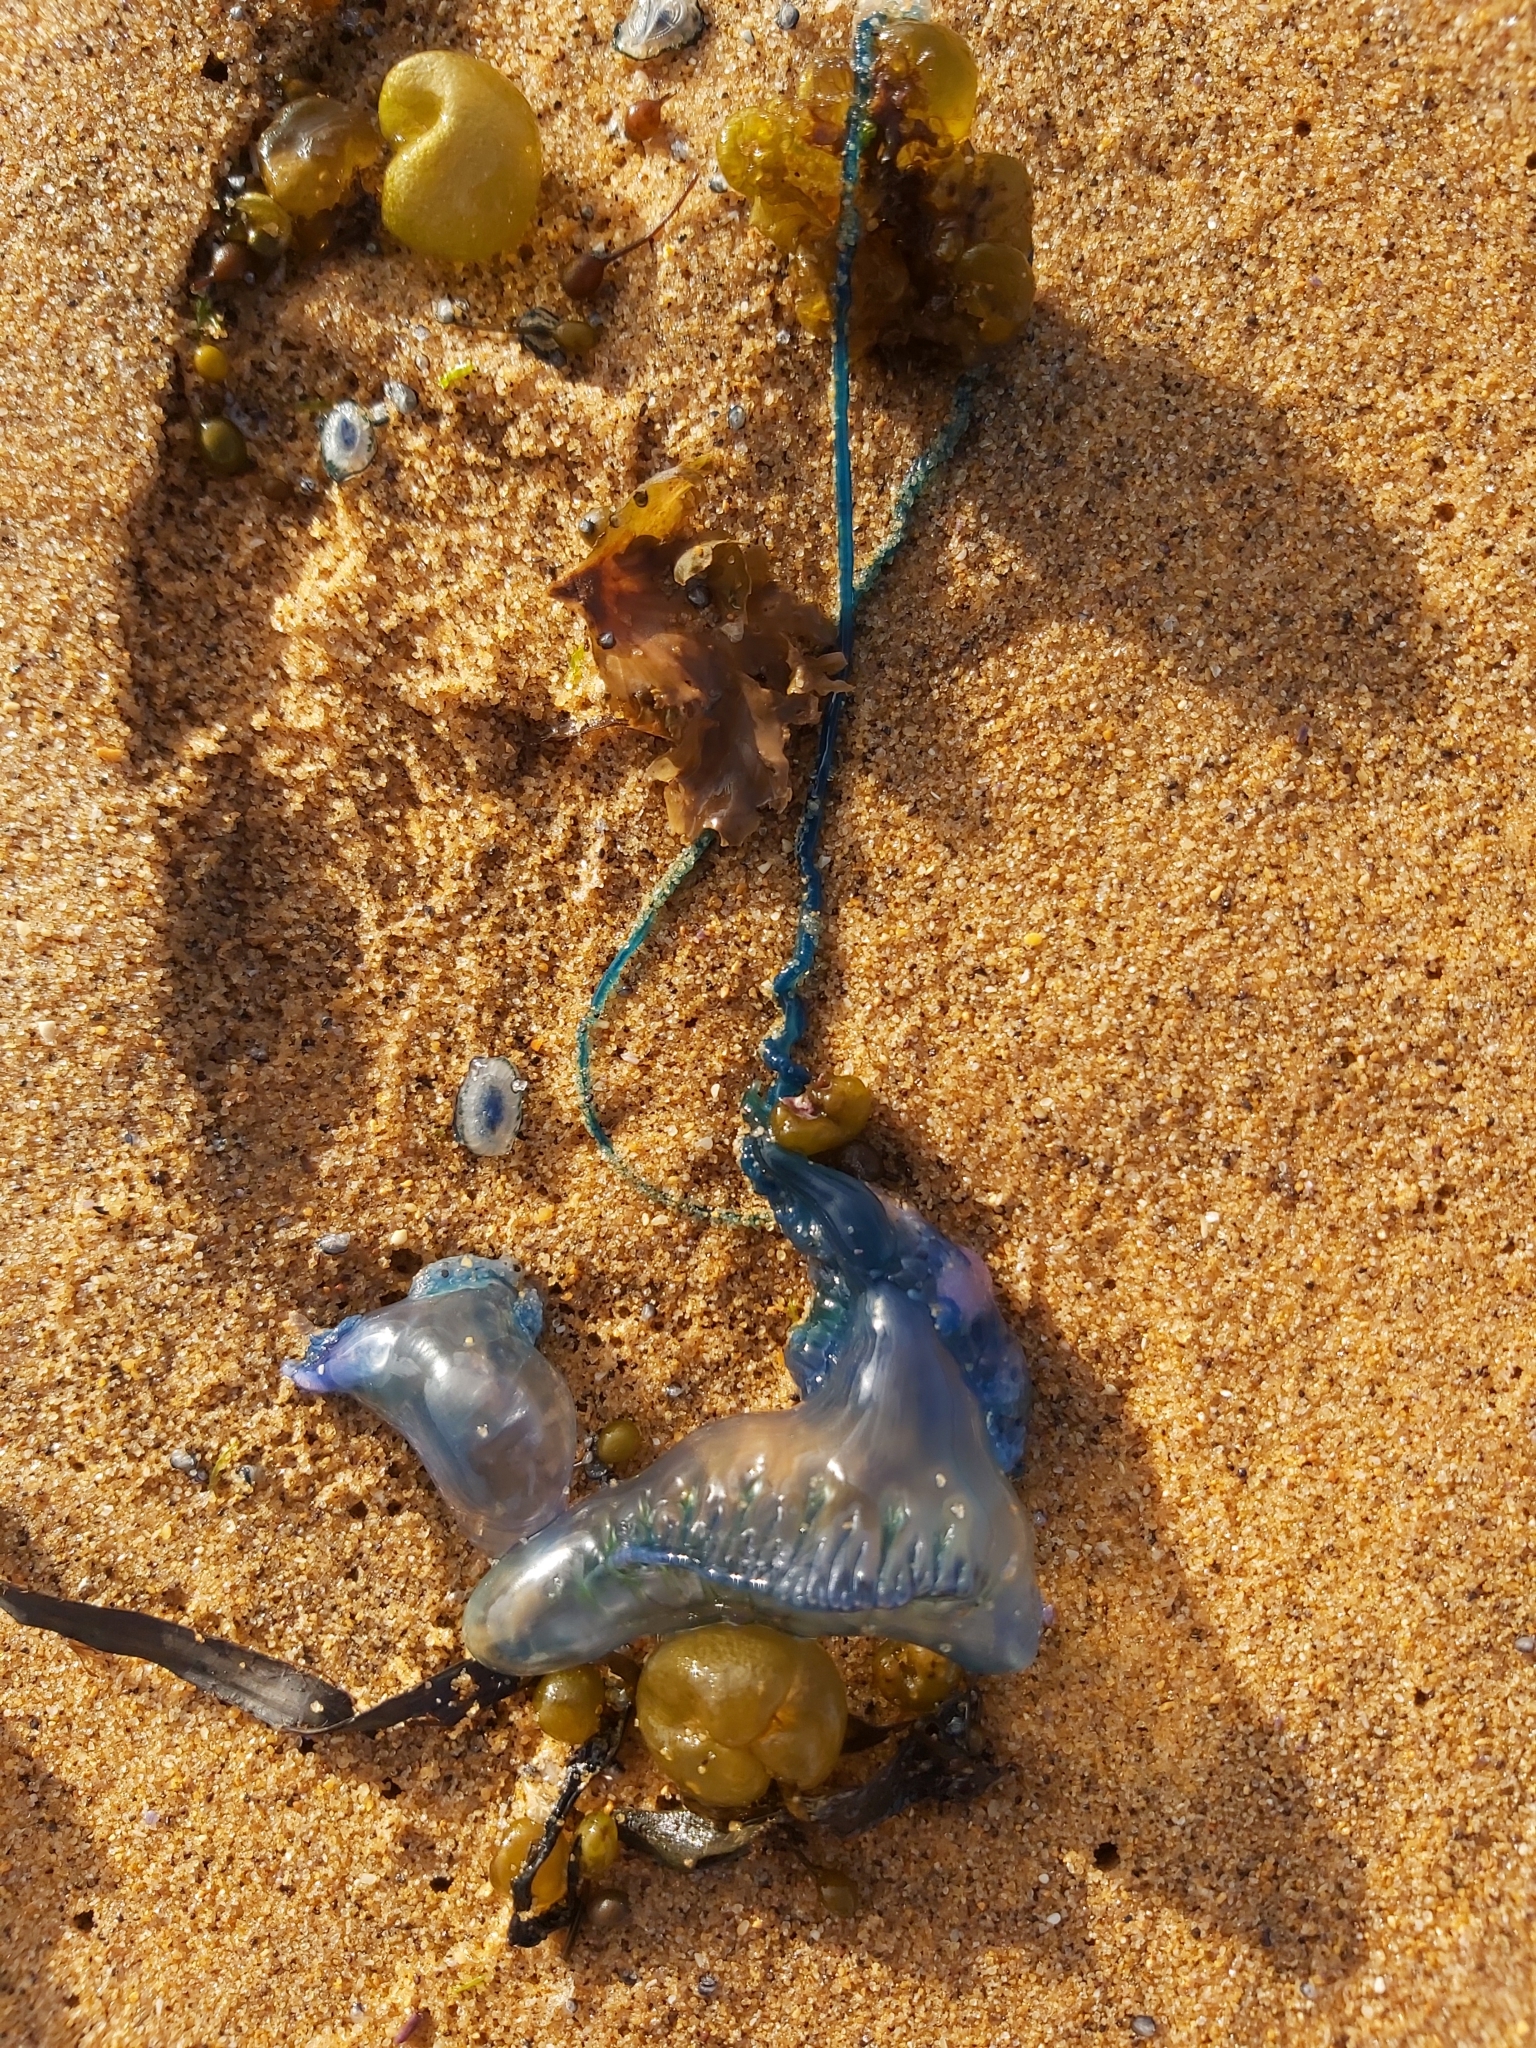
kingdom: Animalia
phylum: Cnidaria
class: Hydrozoa
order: Siphonophorae
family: Physaliidae
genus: Physalia
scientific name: Physalia physalis
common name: Portuguese man-of-war
